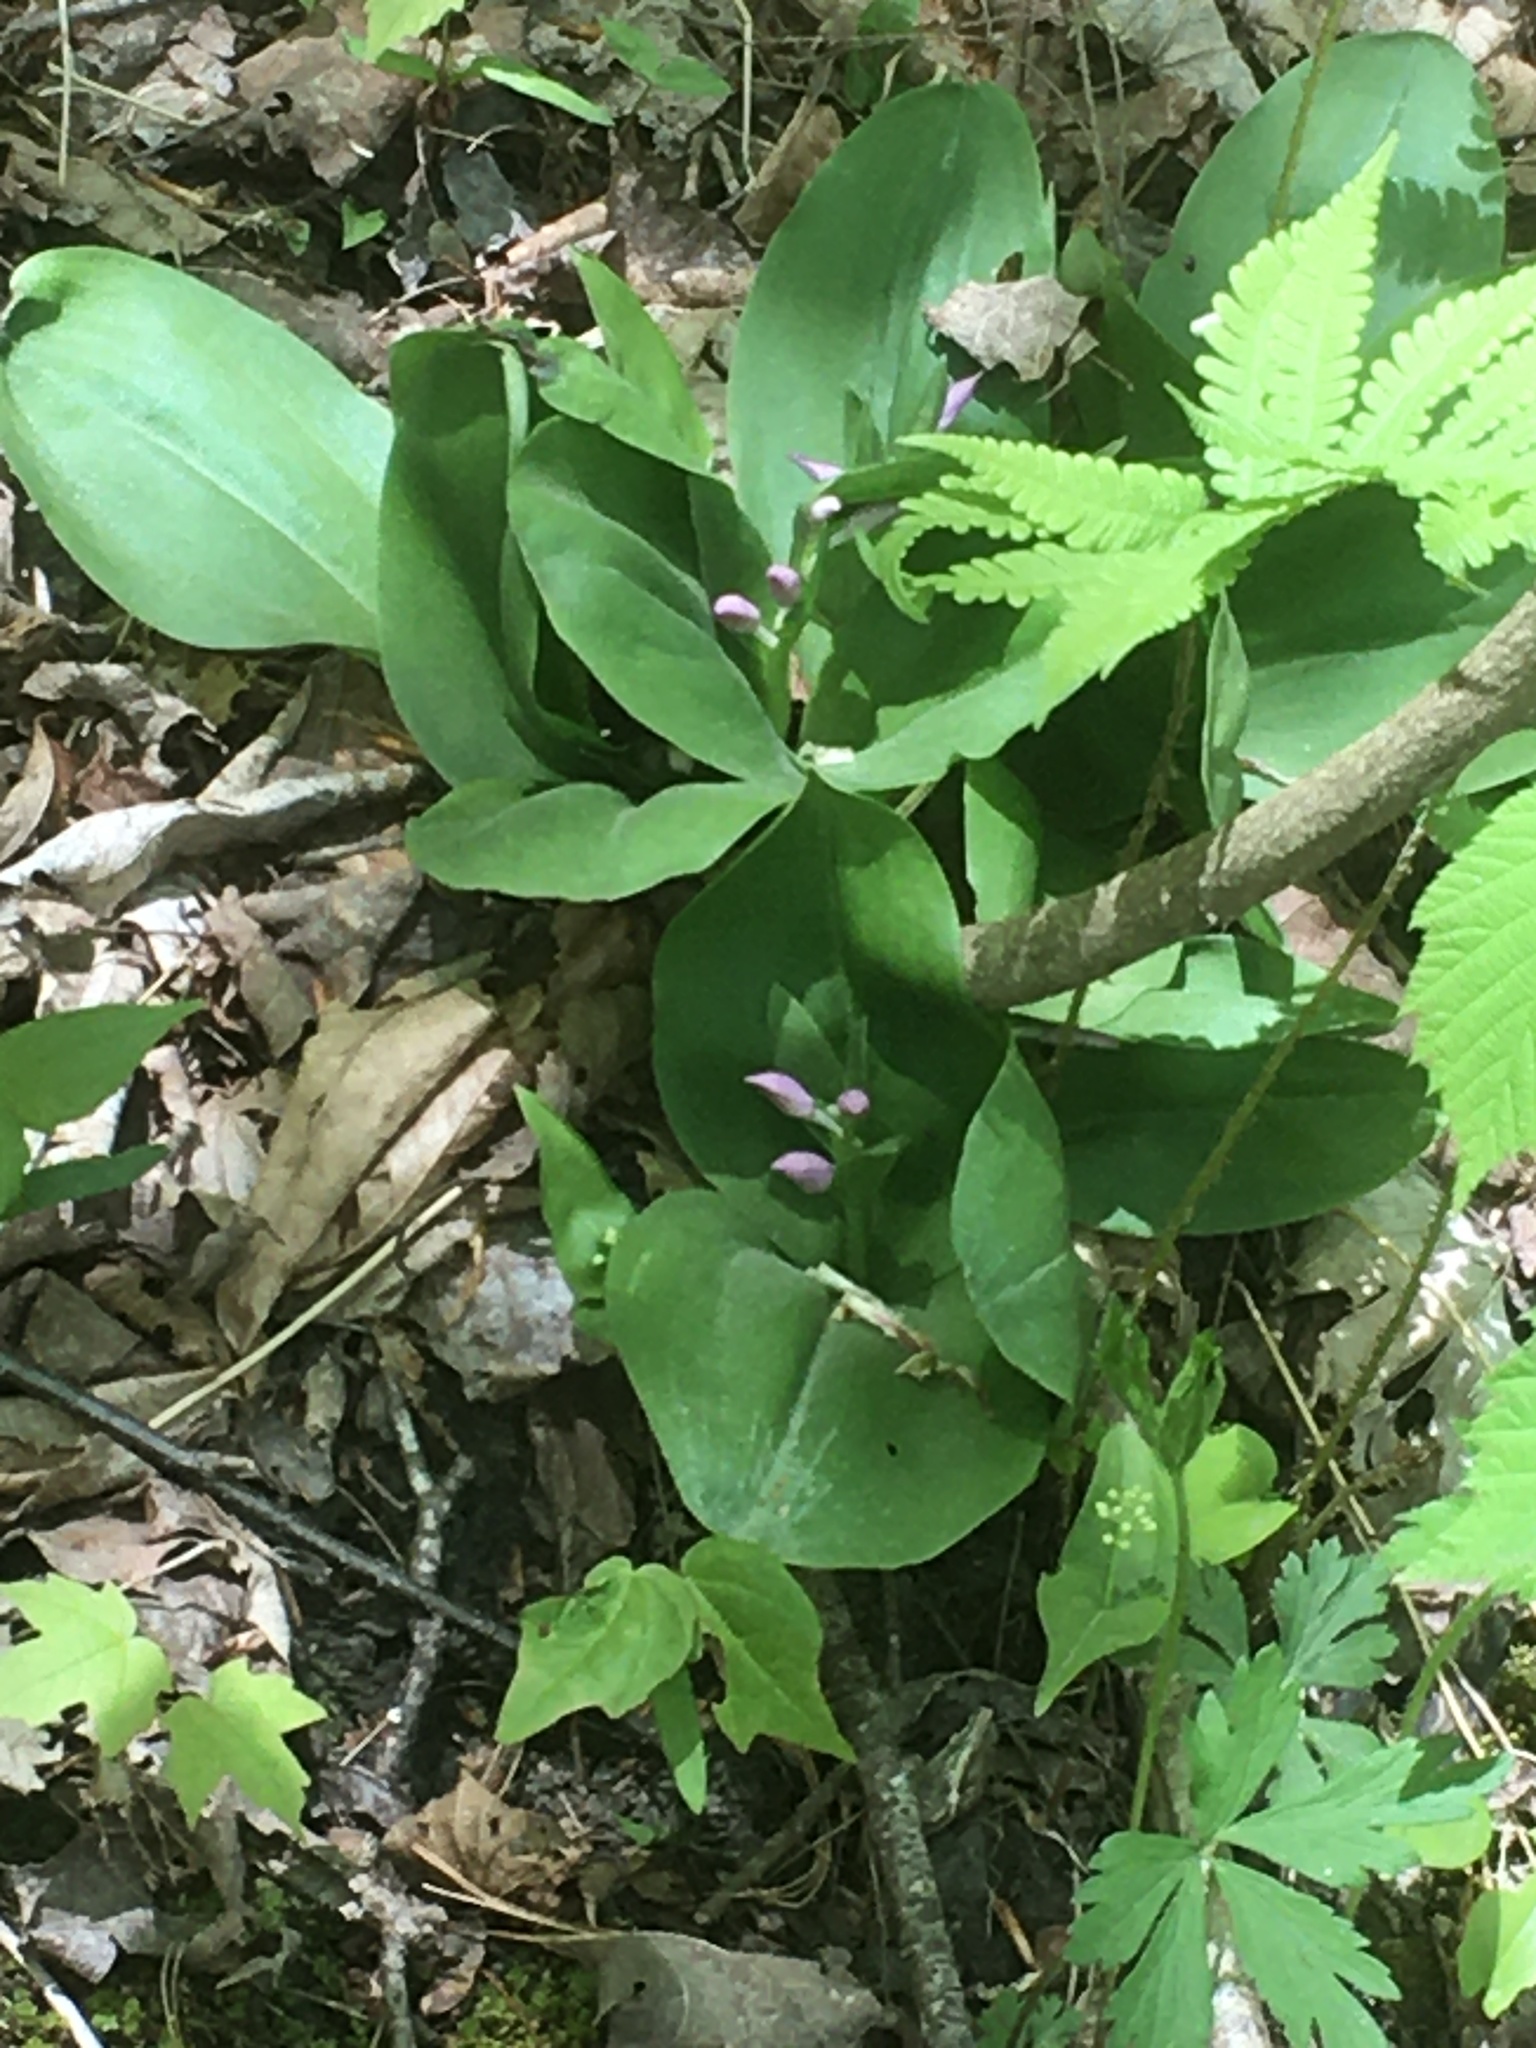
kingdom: Plantae
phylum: Tracheophyta
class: Liliopsida
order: Asparagales
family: Orchidaceae
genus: Galearis
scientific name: Galearis spectabilis
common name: Purple-hooded orchis
